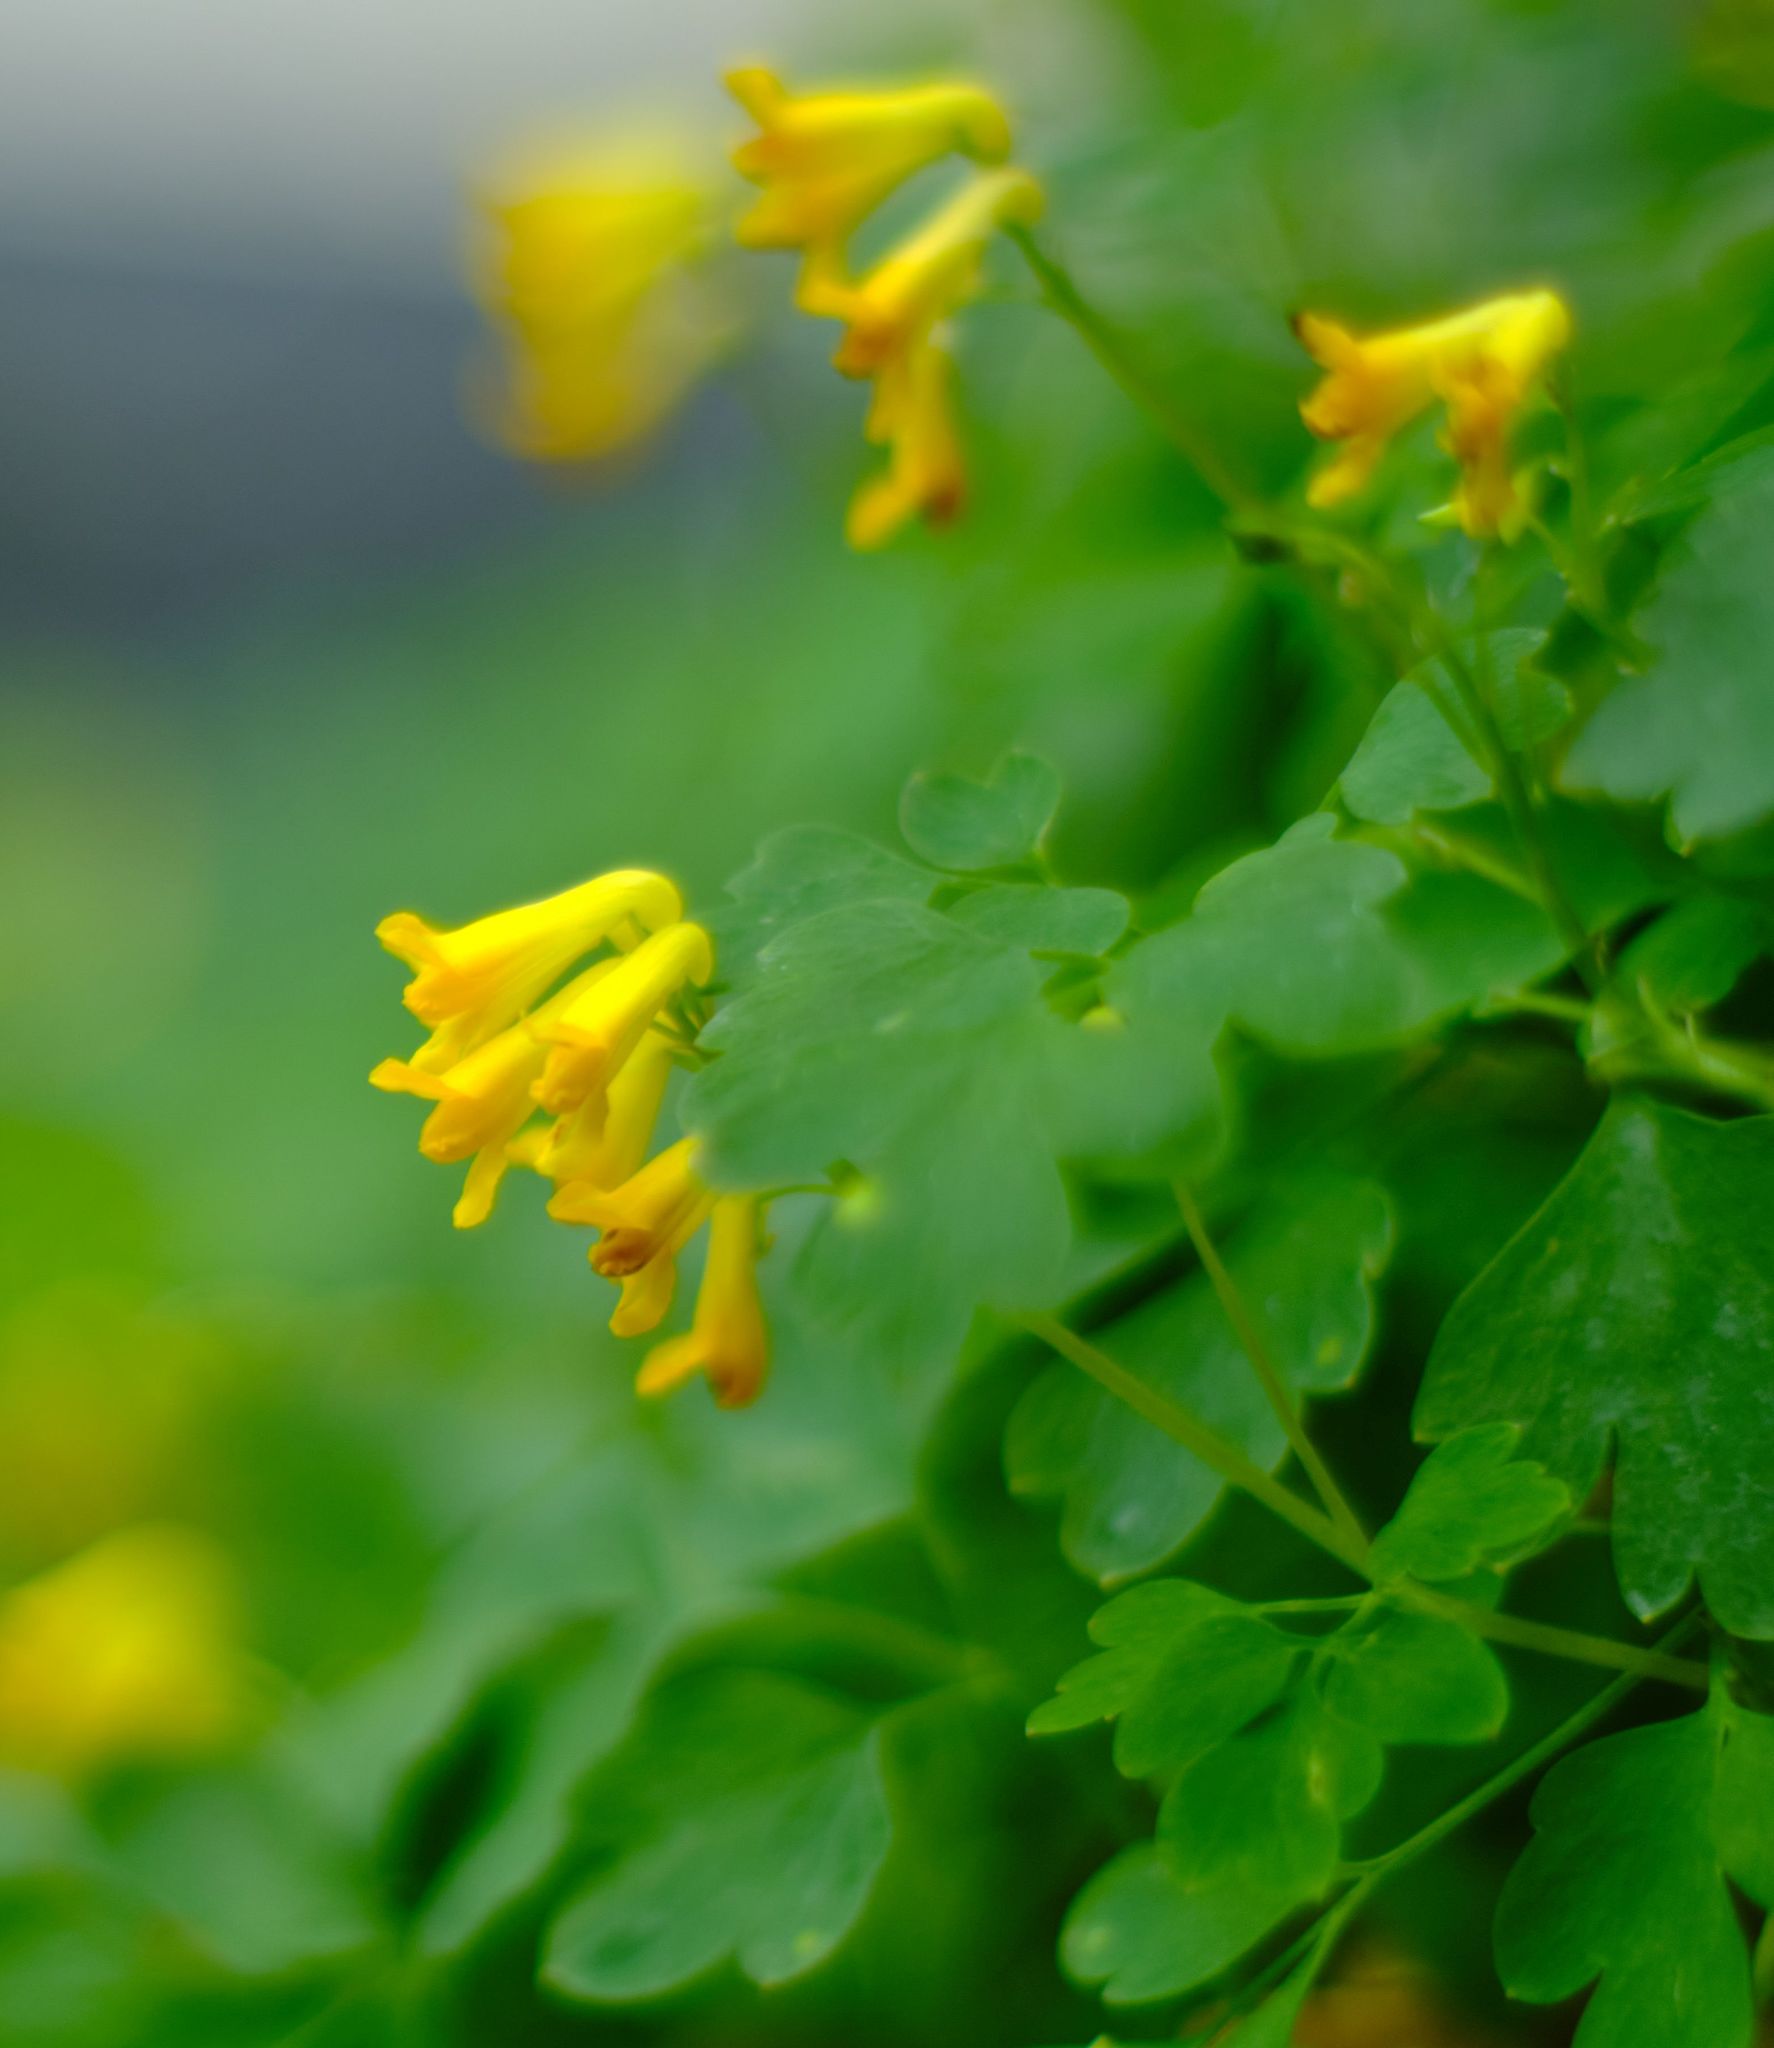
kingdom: Plantae
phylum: Tracheophyta
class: Magnoliopsida
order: Ranunculales
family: Papaveraceae
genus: Pseudofumaria
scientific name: Pseudofumaria lutea
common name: Yellow corydalis
